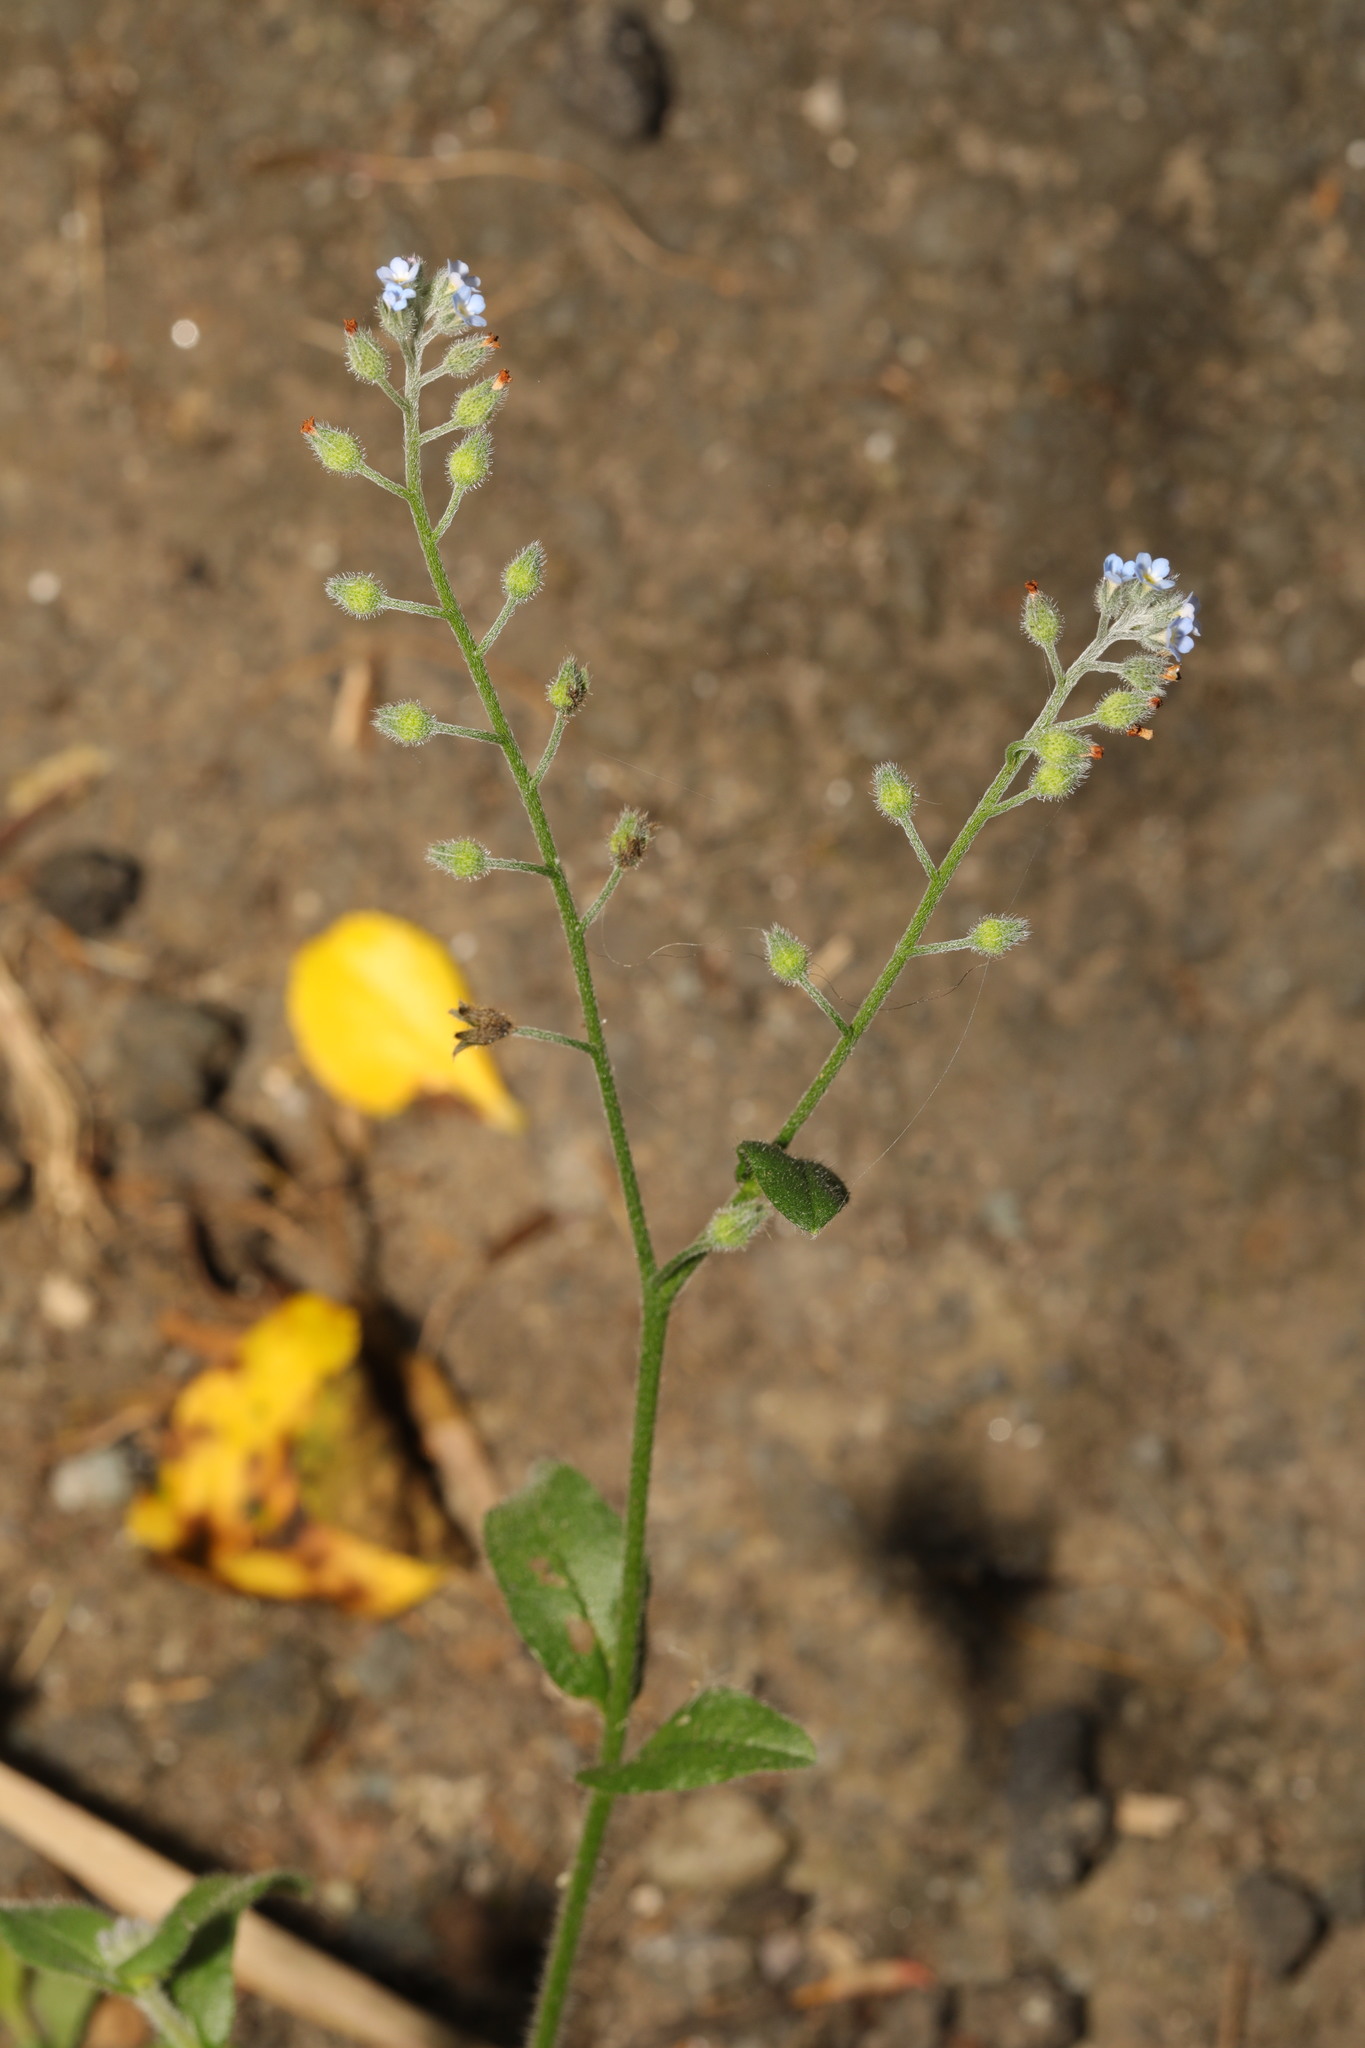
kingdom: Plantae
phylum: Tracheophyta
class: Magnoliopsida
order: Boraginales
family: Boraginaceae
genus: Myosotis
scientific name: Myosotis arvensis
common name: Field forget-me-not
